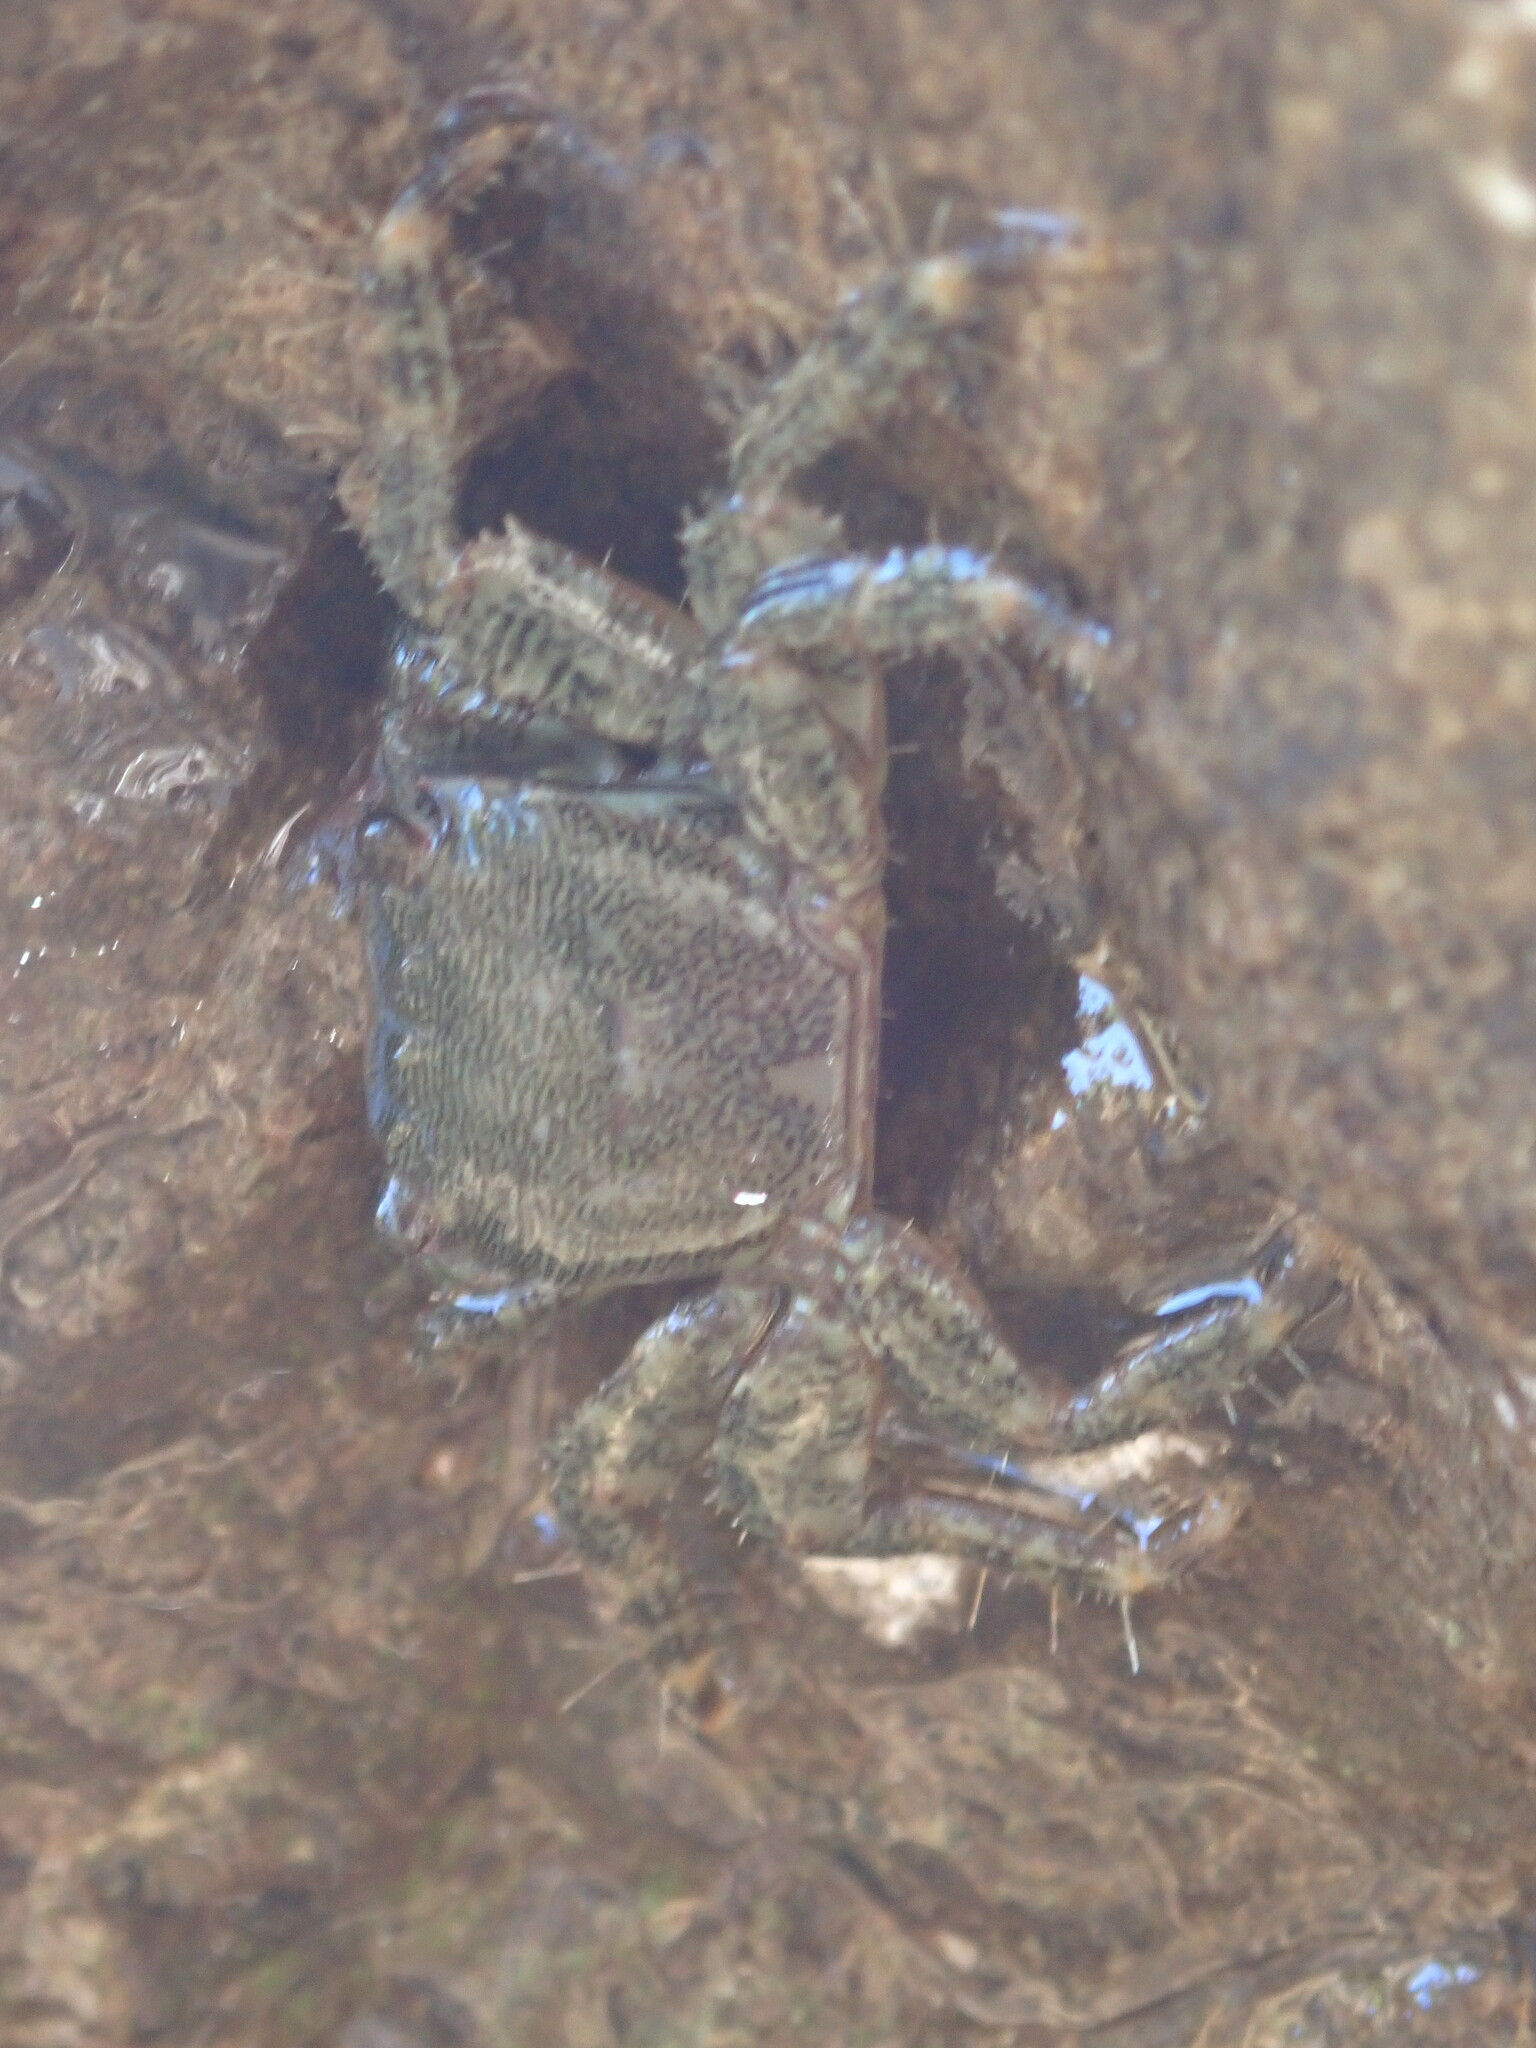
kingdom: Animalia
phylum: Arthropoda
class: Malacostraca
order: Decapoda
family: Grapsidae
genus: Pachygrapsus
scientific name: Pachygrapsus marmoratus
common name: Marbled rock crab
